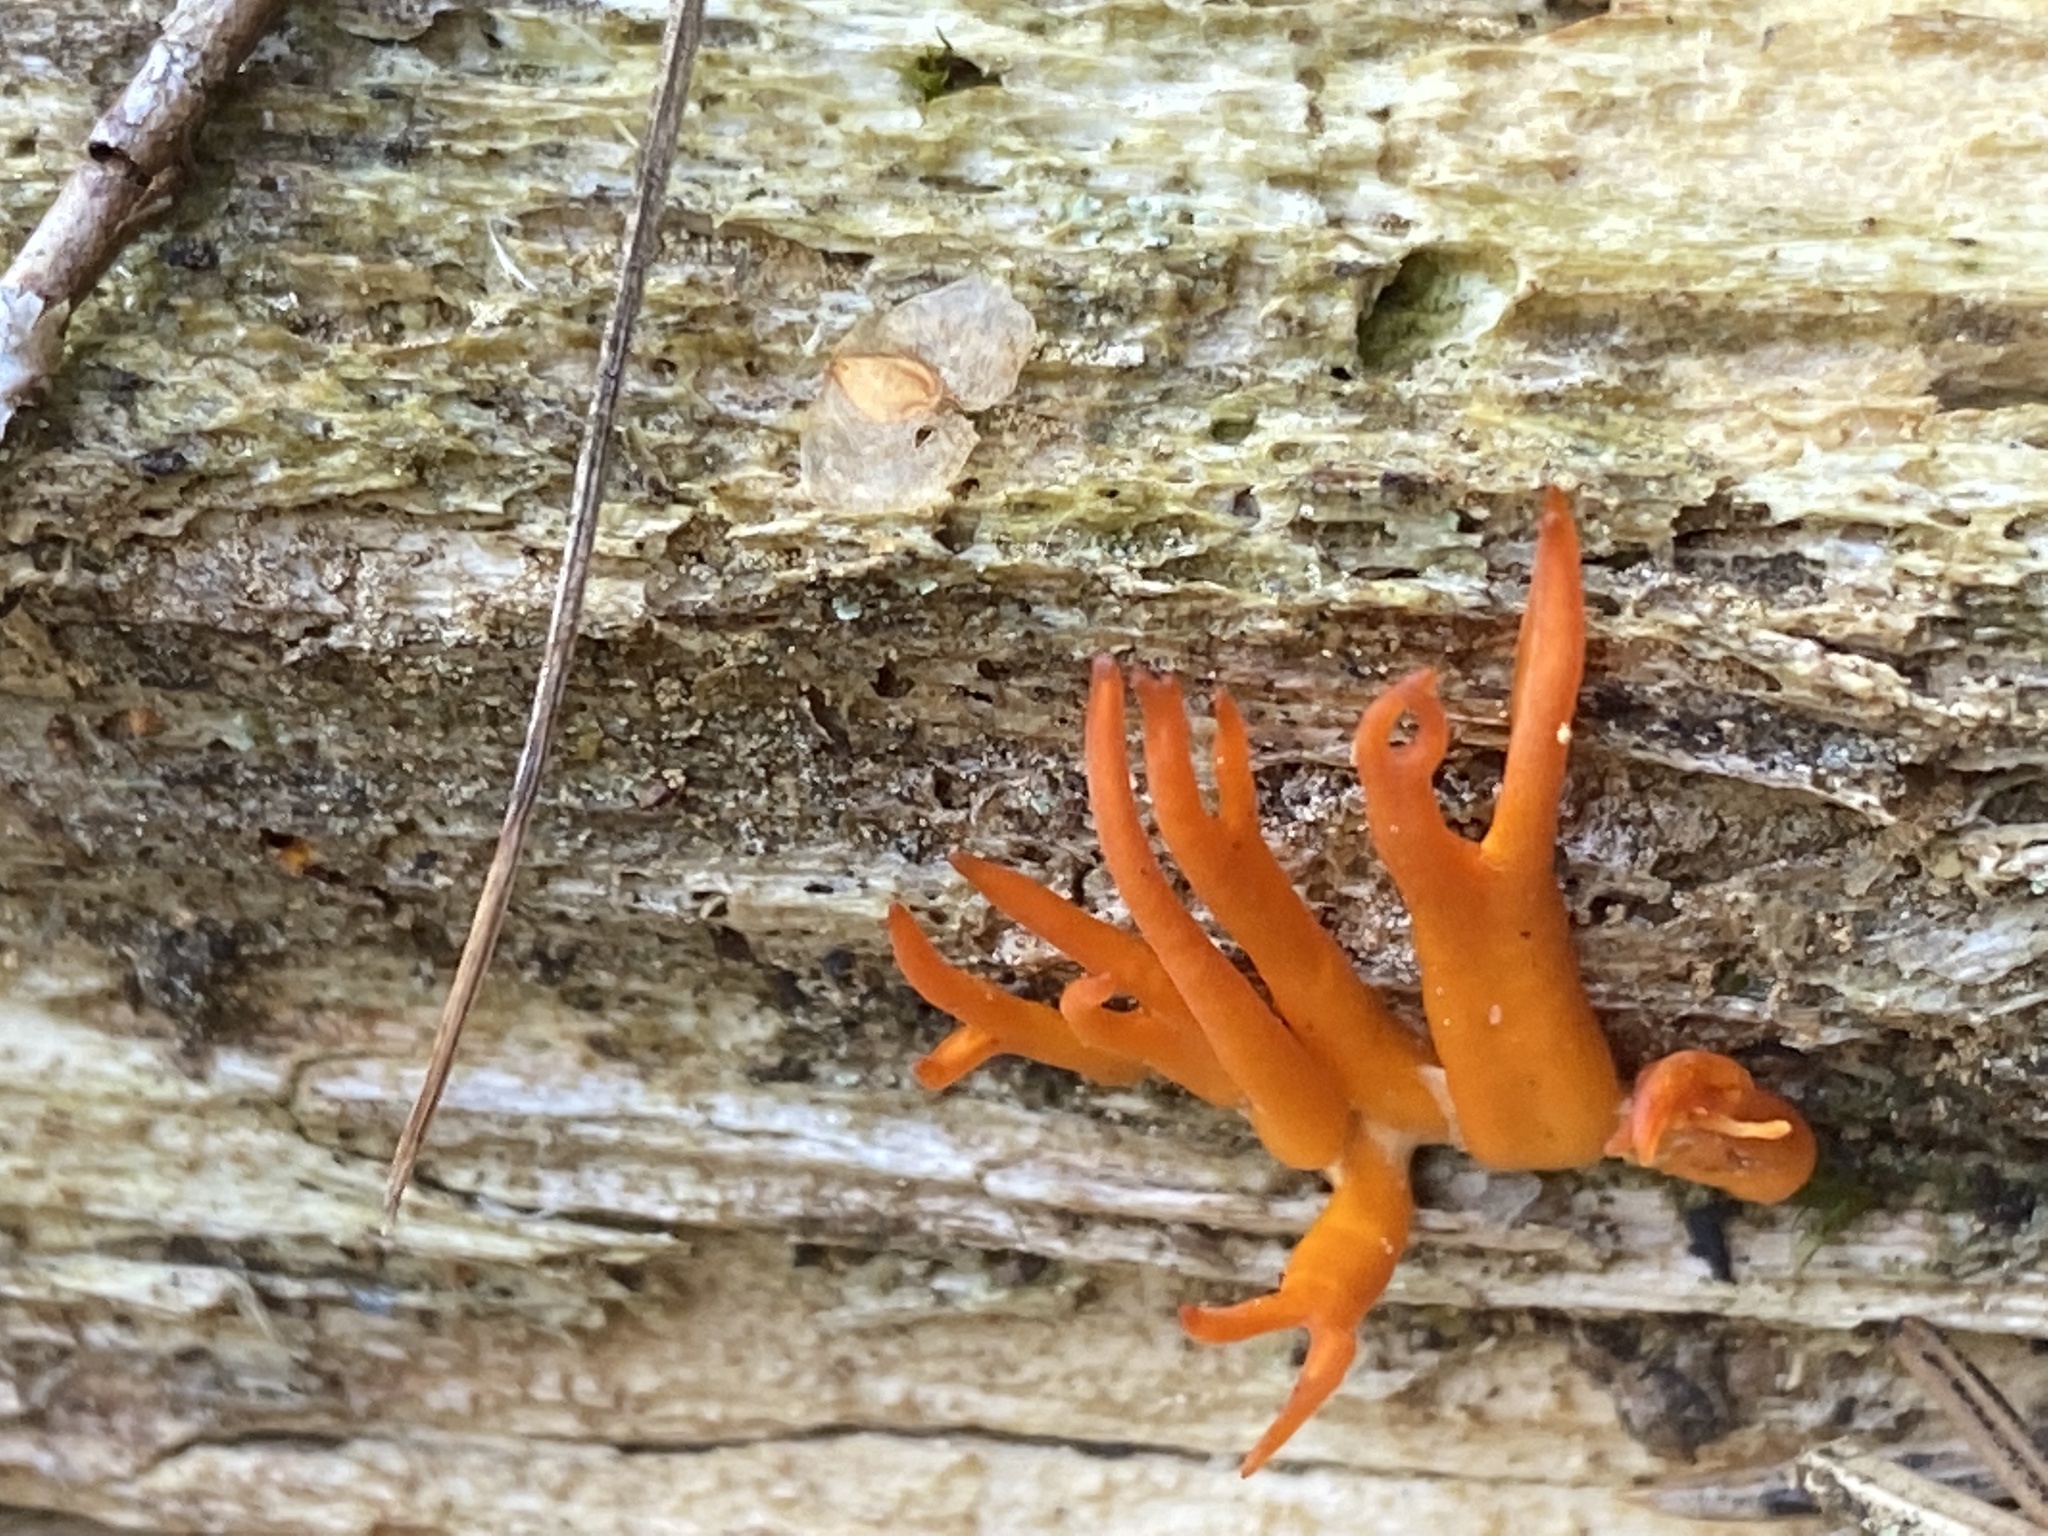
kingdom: Fungi
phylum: Basidiomycota
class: Dacrymycetes
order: Dacrymycetales
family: Dacrymycetaceae
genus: Calocera
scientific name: Calocera viscosa
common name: Yellow stagshorn
